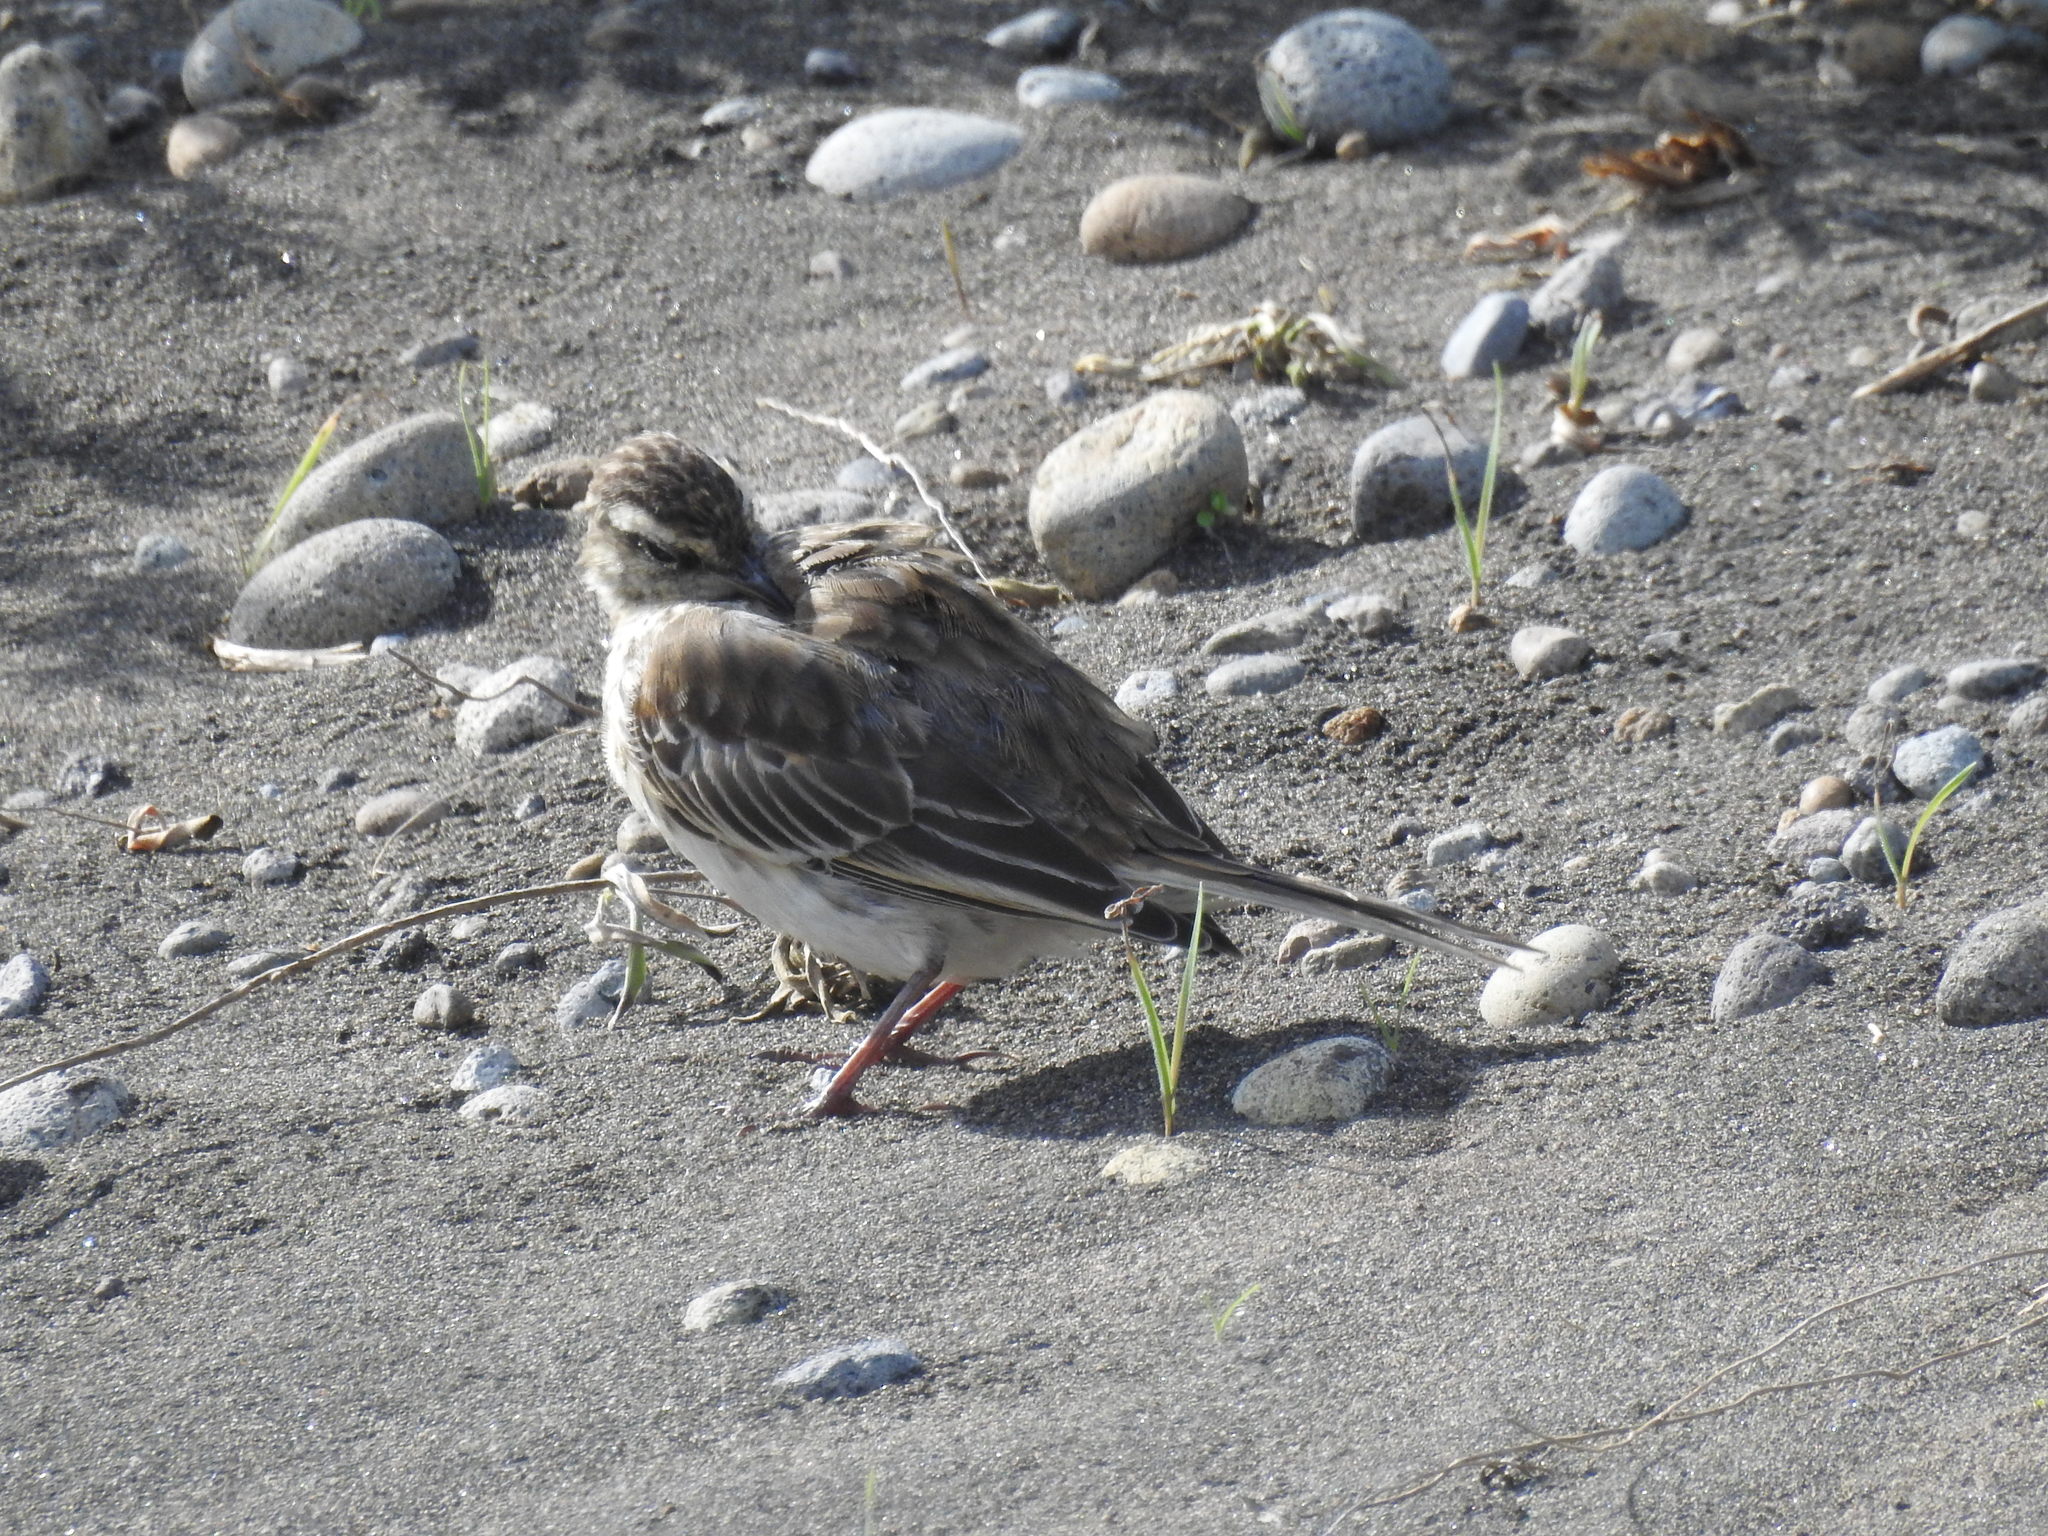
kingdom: Animalia
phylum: Chordata
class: Aves
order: Passeriformes
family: Motacillidae
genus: Anthus
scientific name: Anthus novaeseelandiae
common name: New zealand pipit
